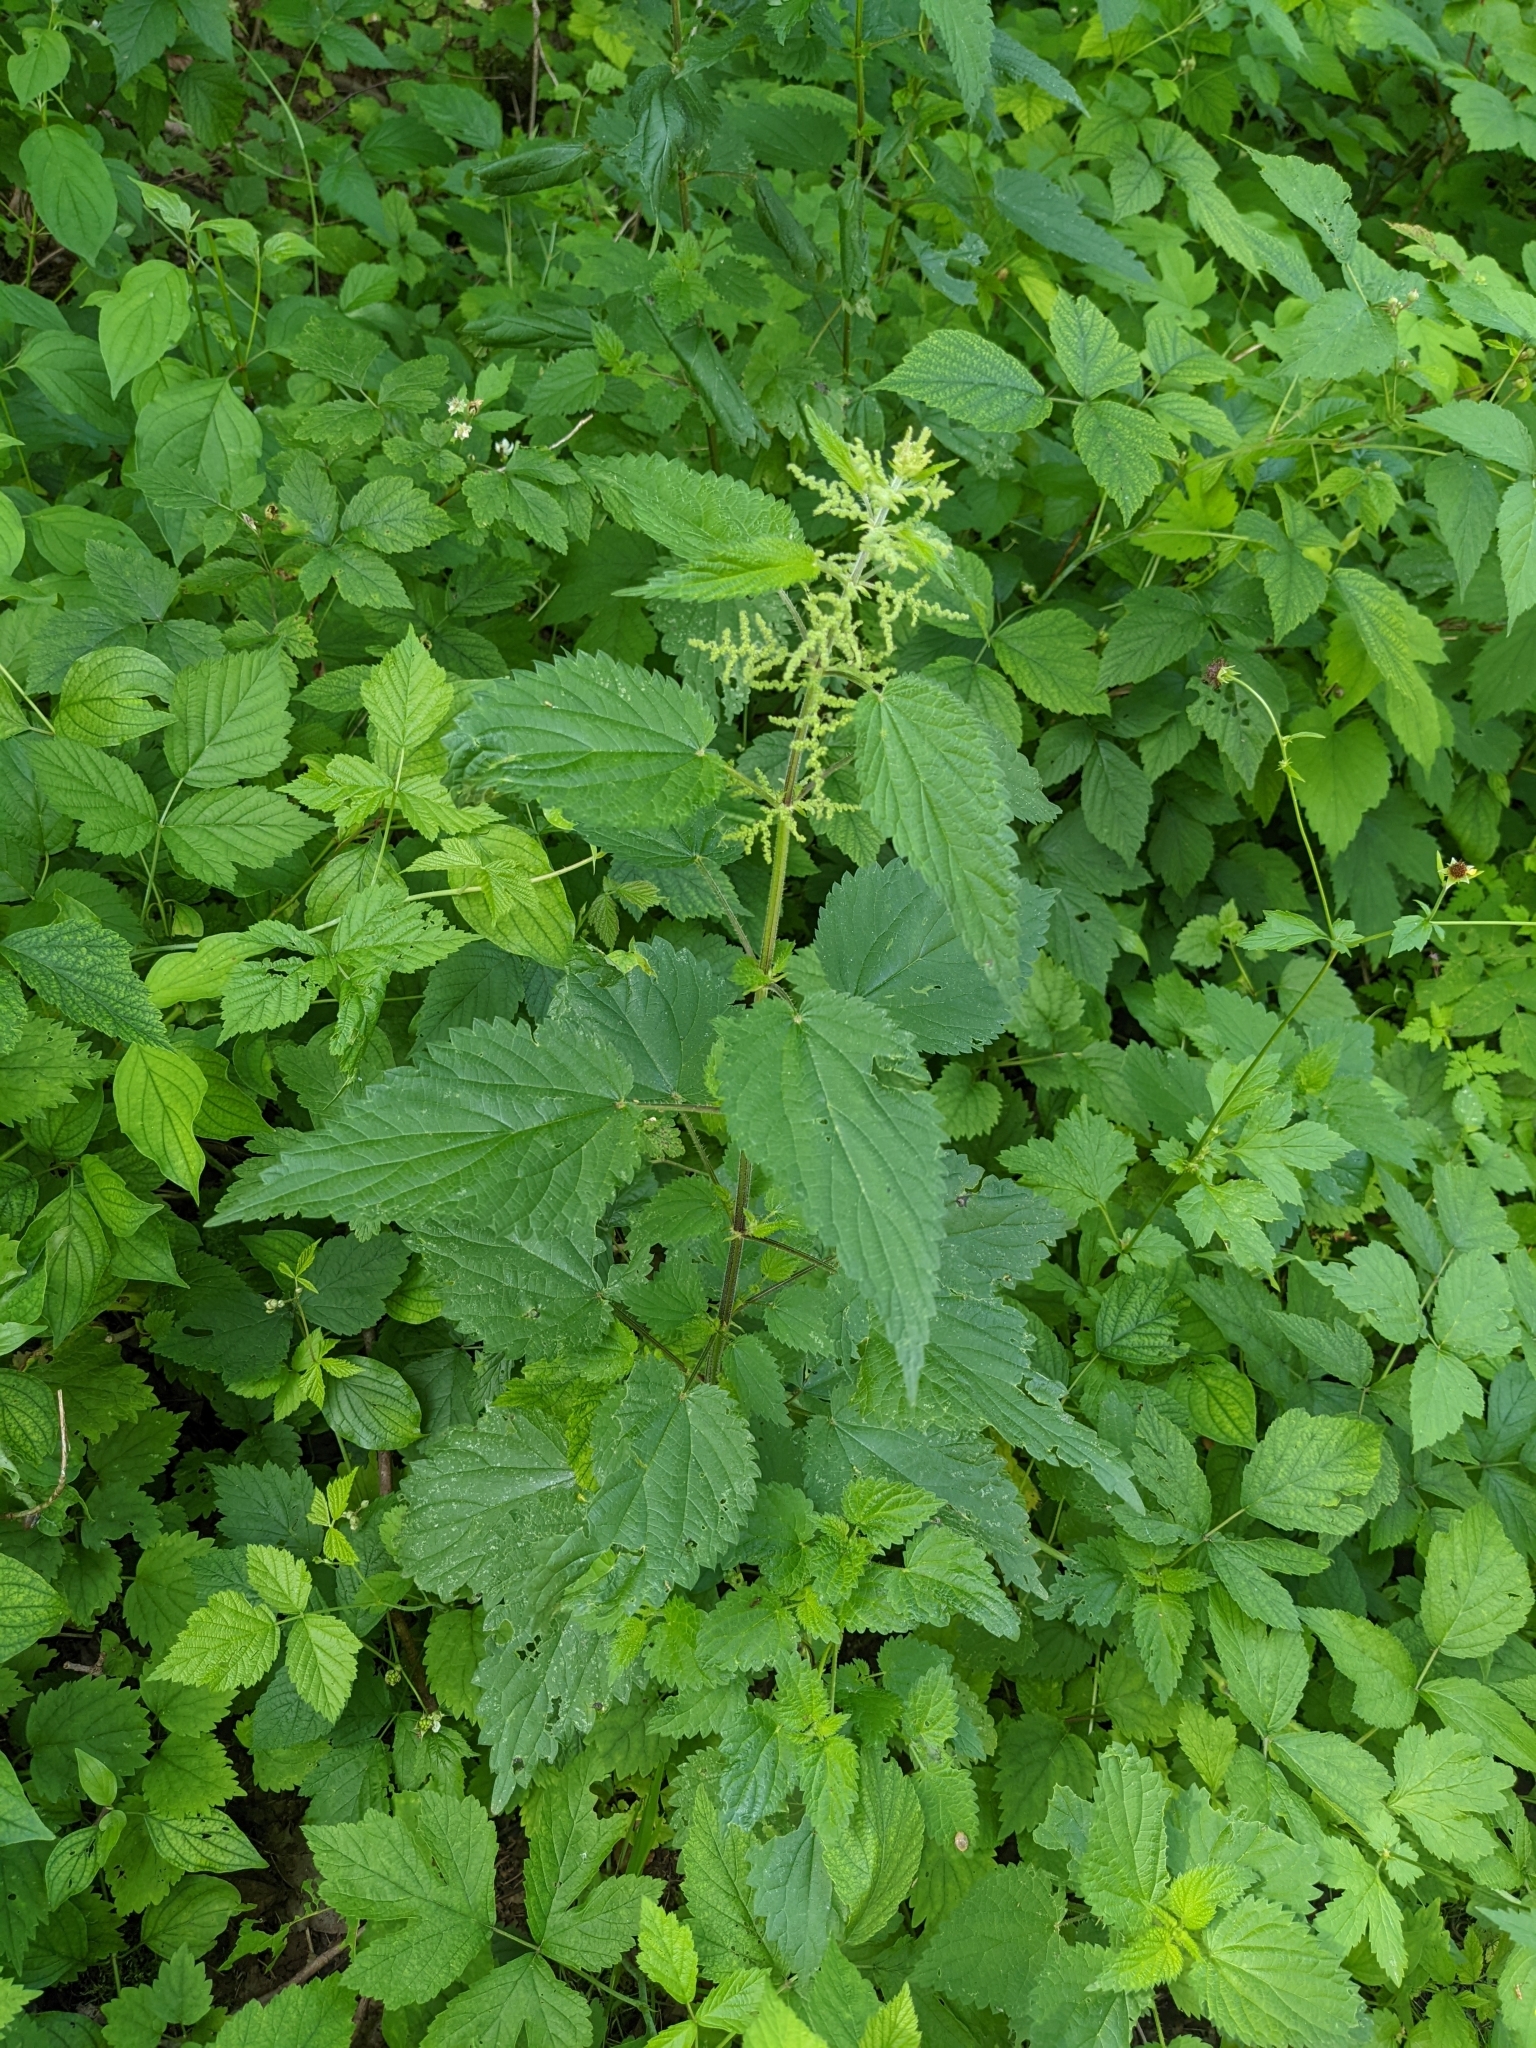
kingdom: Plantae
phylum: Tracheophyta
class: Magnoliopsida
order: Rosales
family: Urticaceae
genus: Urtica
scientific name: Urtica dioica
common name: Common nettle
